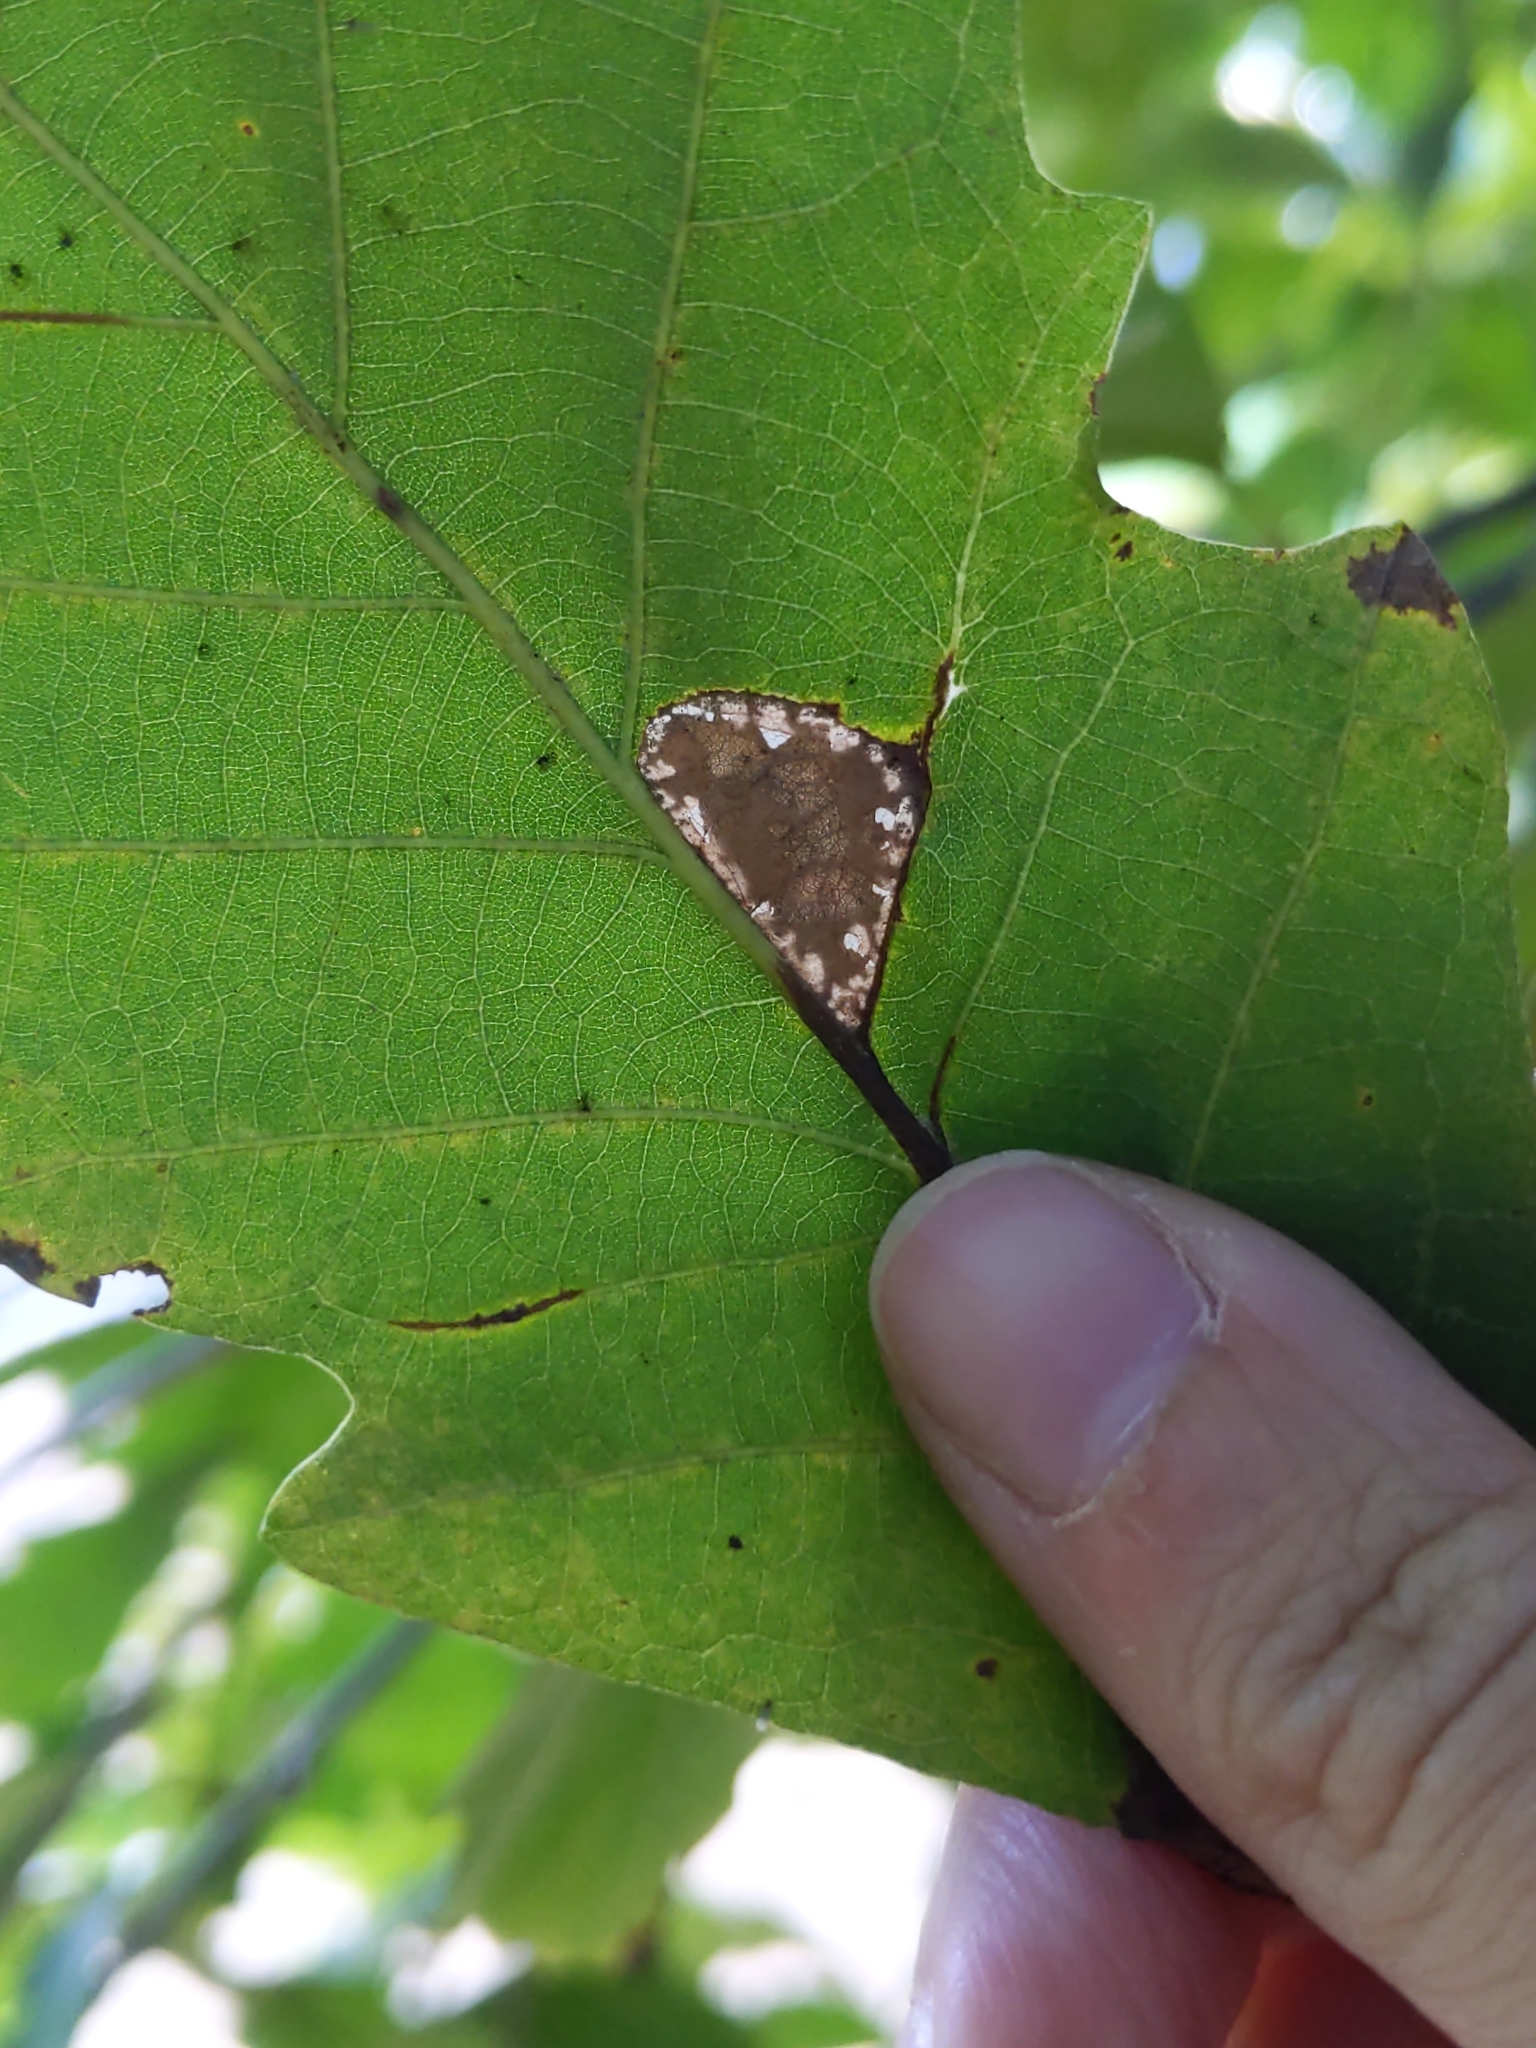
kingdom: Animalia
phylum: Arthropoda
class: Insecta
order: Lepidoptera
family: Gracillariidae
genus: Phyllonorycter
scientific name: Phyllonorycter
